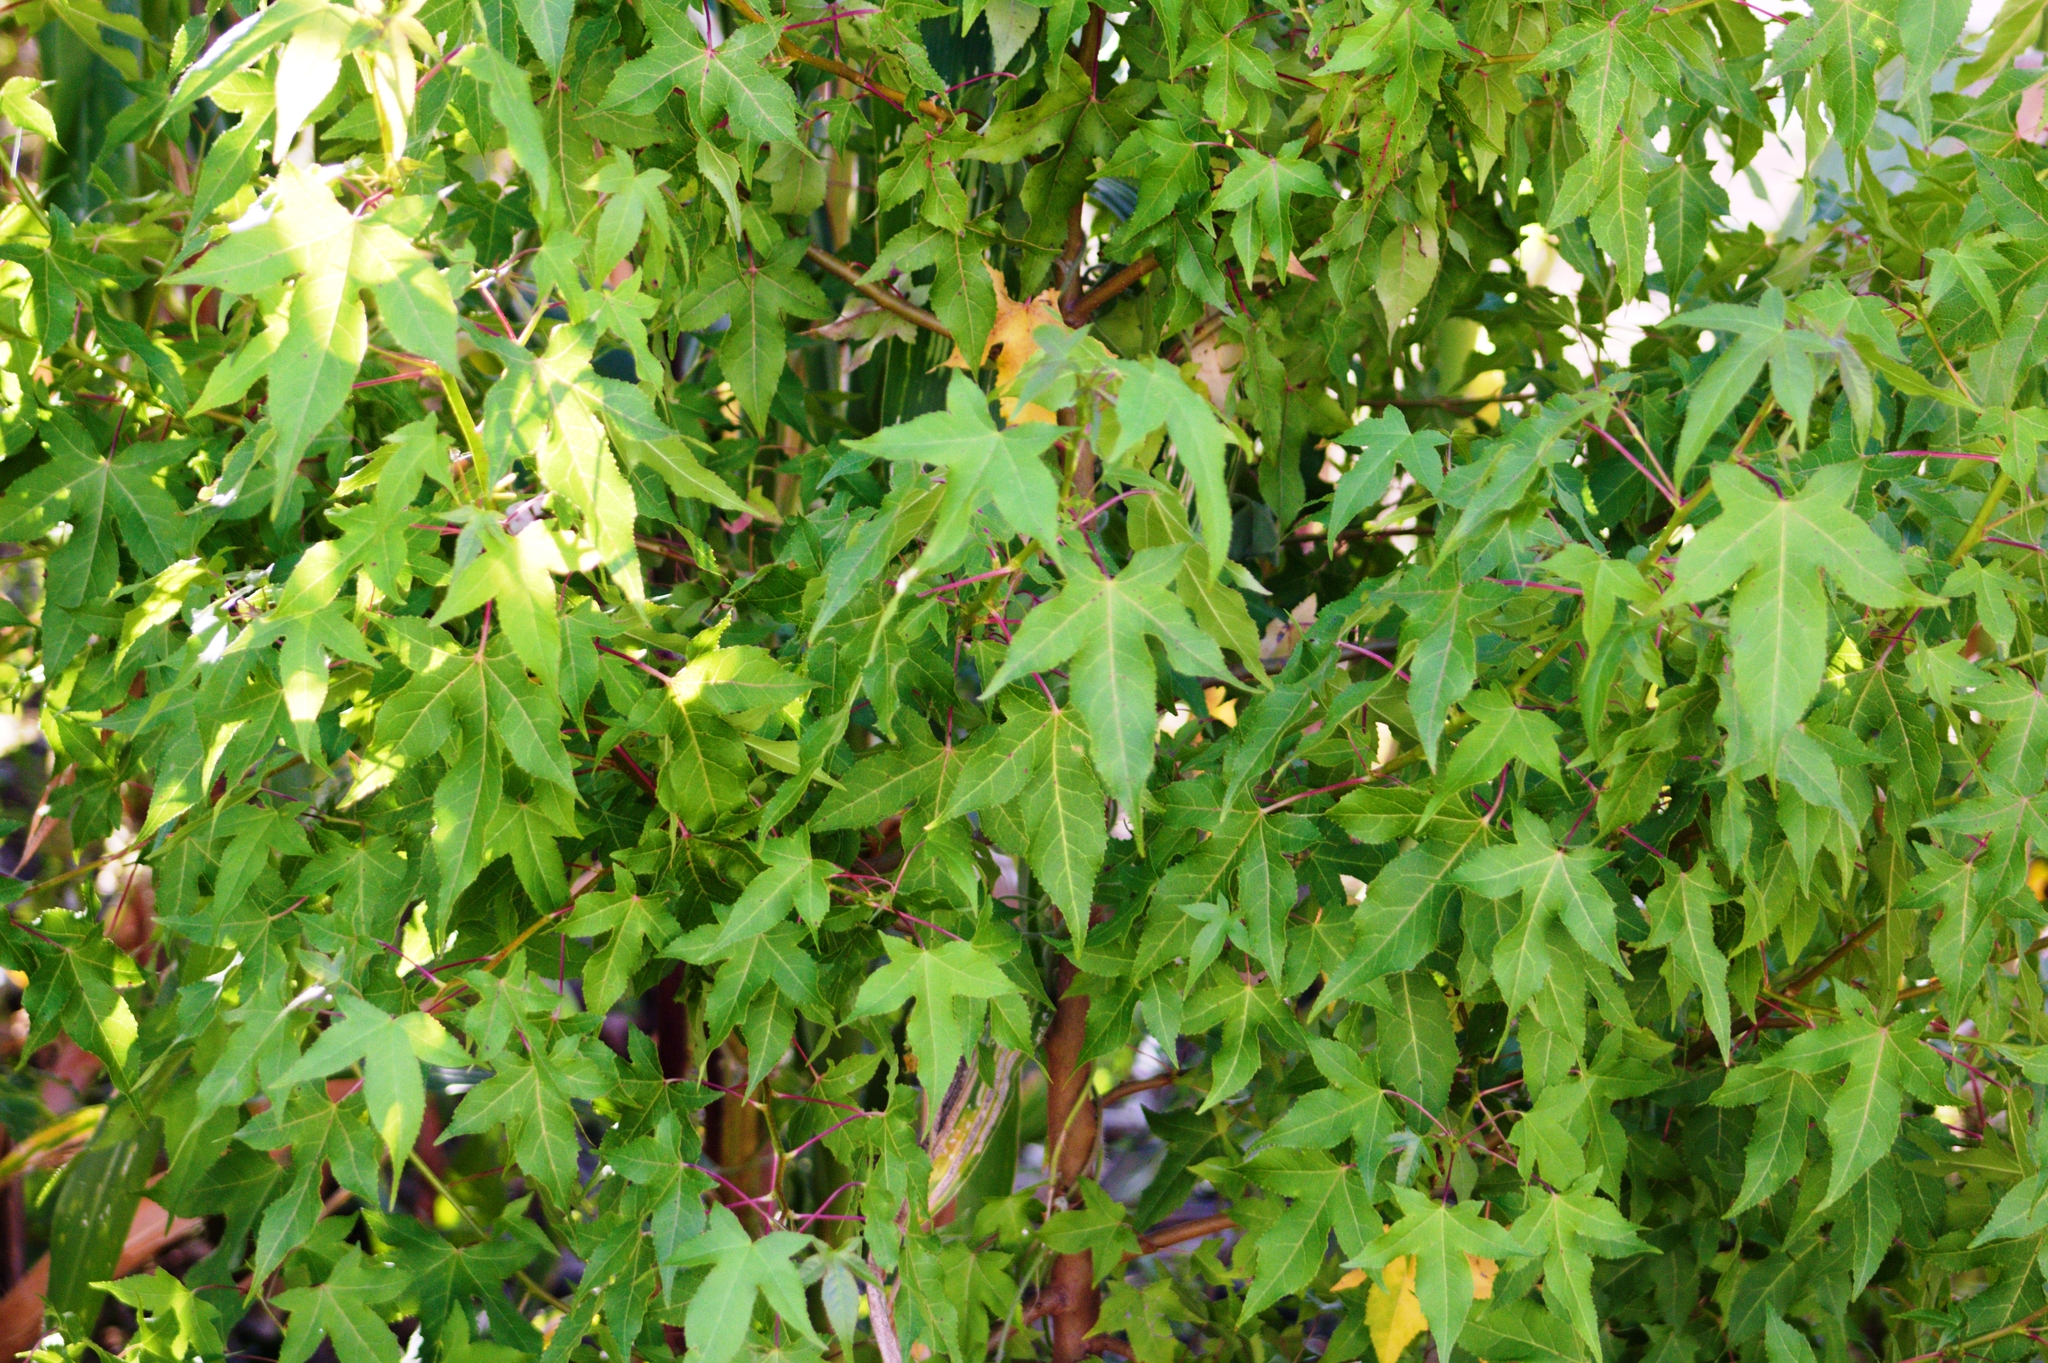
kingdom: Plantae
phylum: Tracheophyta
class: Magnoliopsida
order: Saxifragales
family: Altingiaceae
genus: Liquidambar
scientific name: Liquidambar styraciflua
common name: Sweet gum
